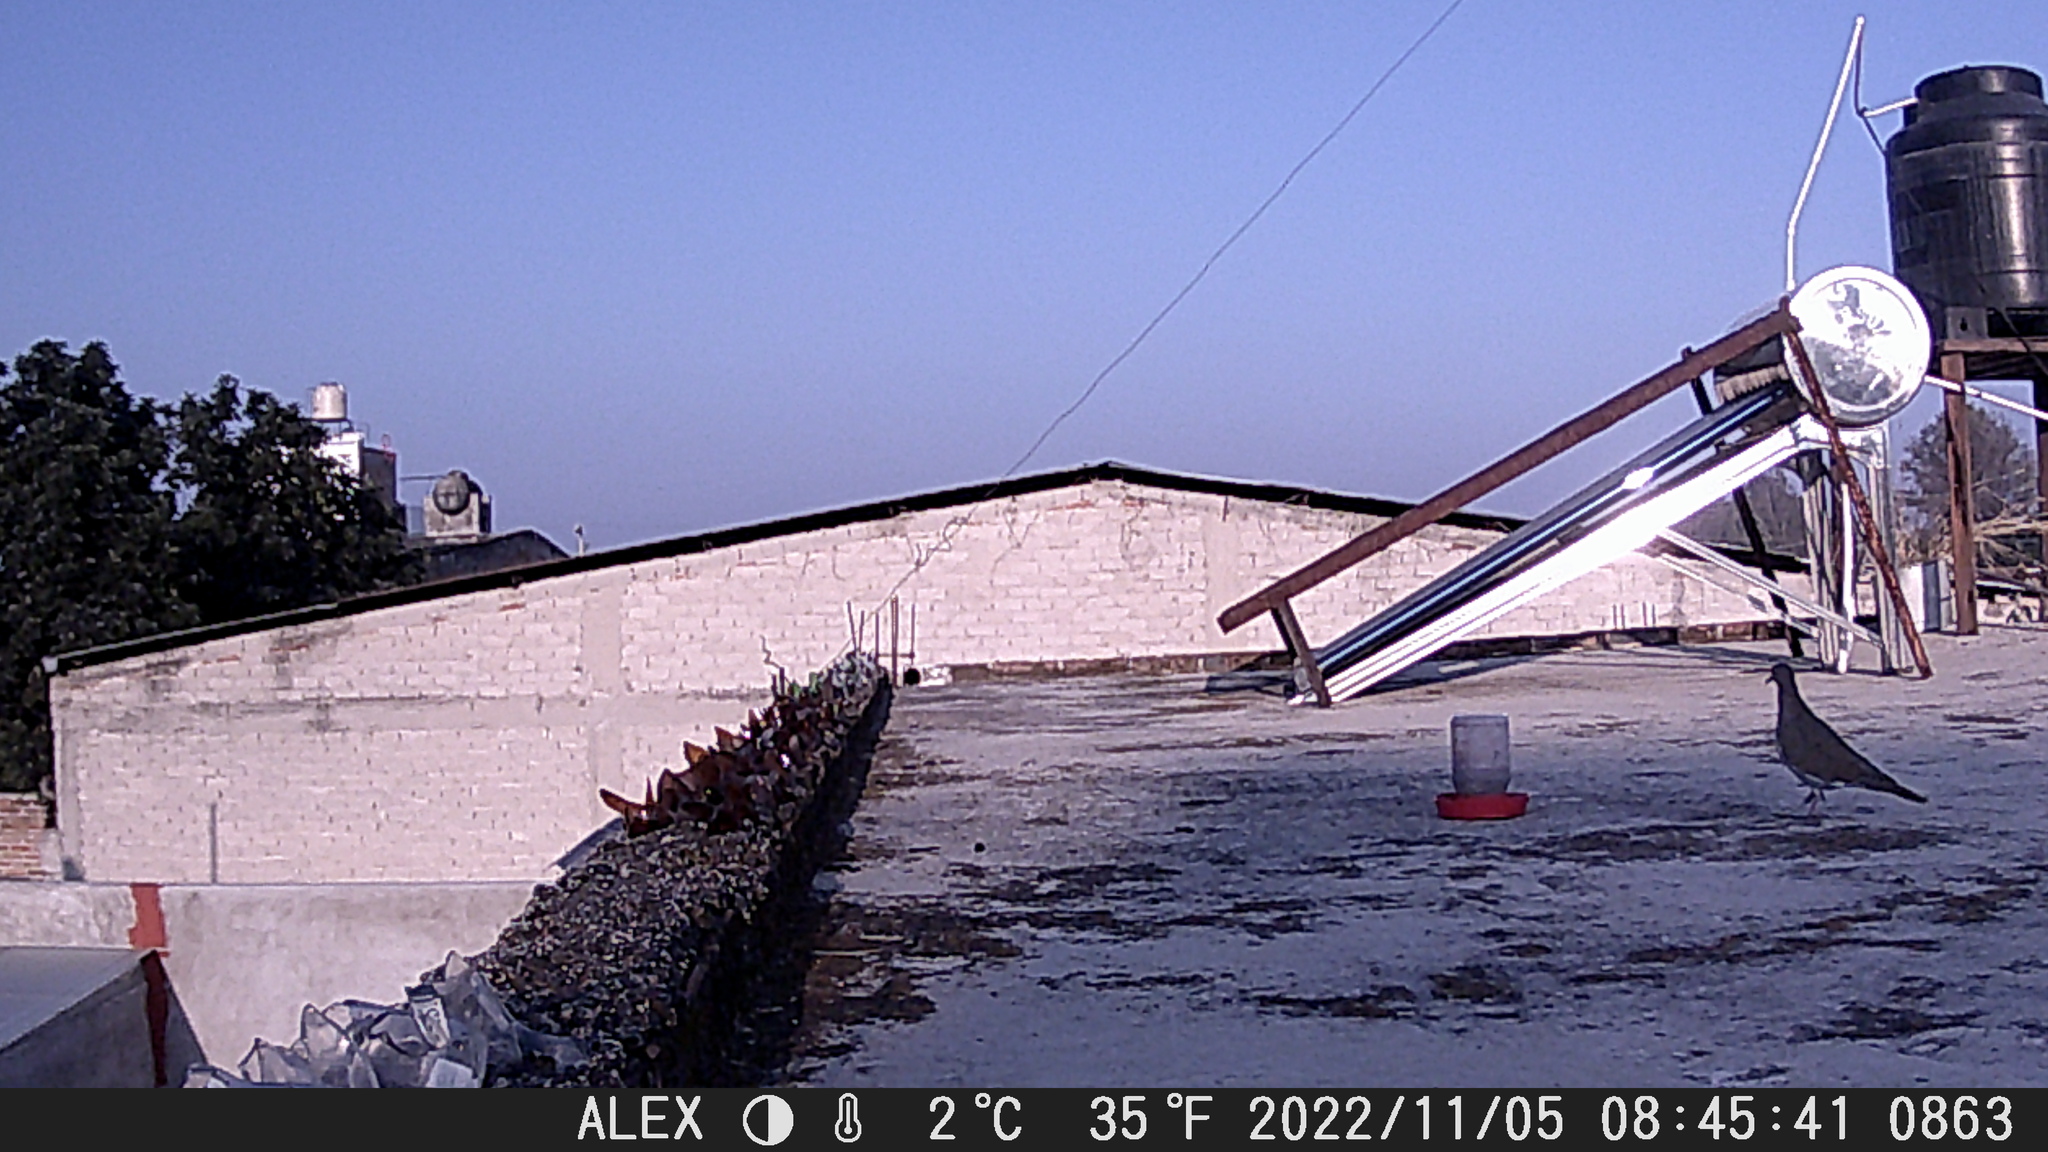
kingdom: Animalia
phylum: Chordata
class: Aves
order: Columbiformes
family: Columbidae
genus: Zenaida
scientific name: Zenaida asiatica
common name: White-winged dove
